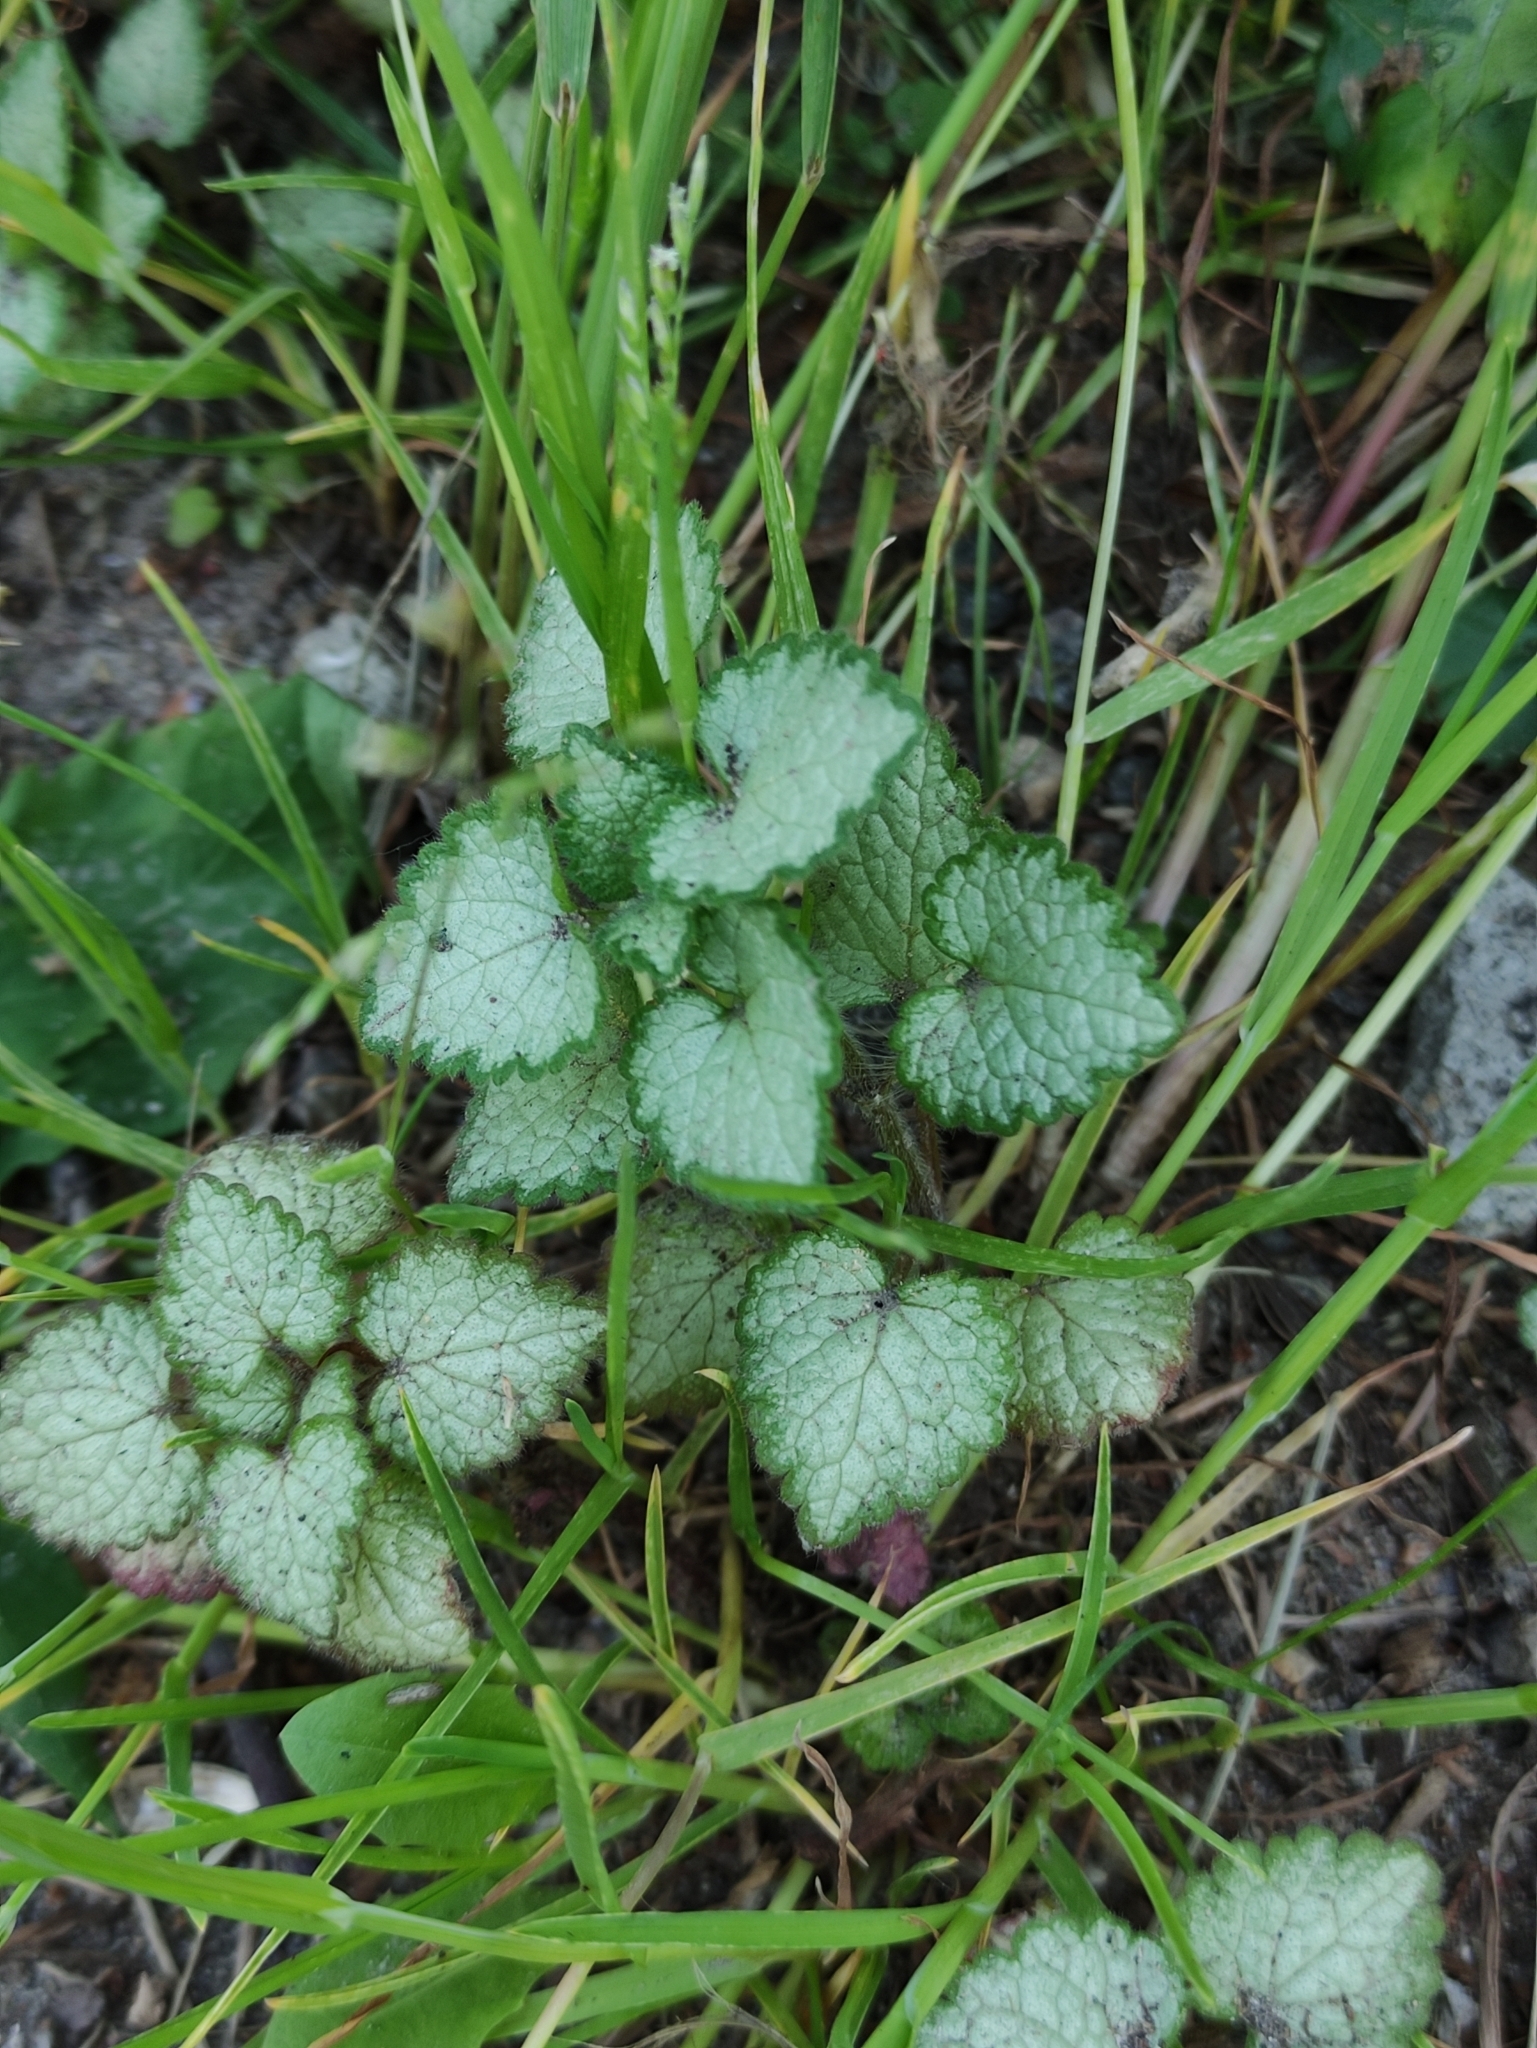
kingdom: Plantae
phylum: Tracheophyta
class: Magnoliopsida
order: Lamiales
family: Lamiaceae
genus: Lamium
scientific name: Lamium maculatum
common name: Spotted dead-nettle
